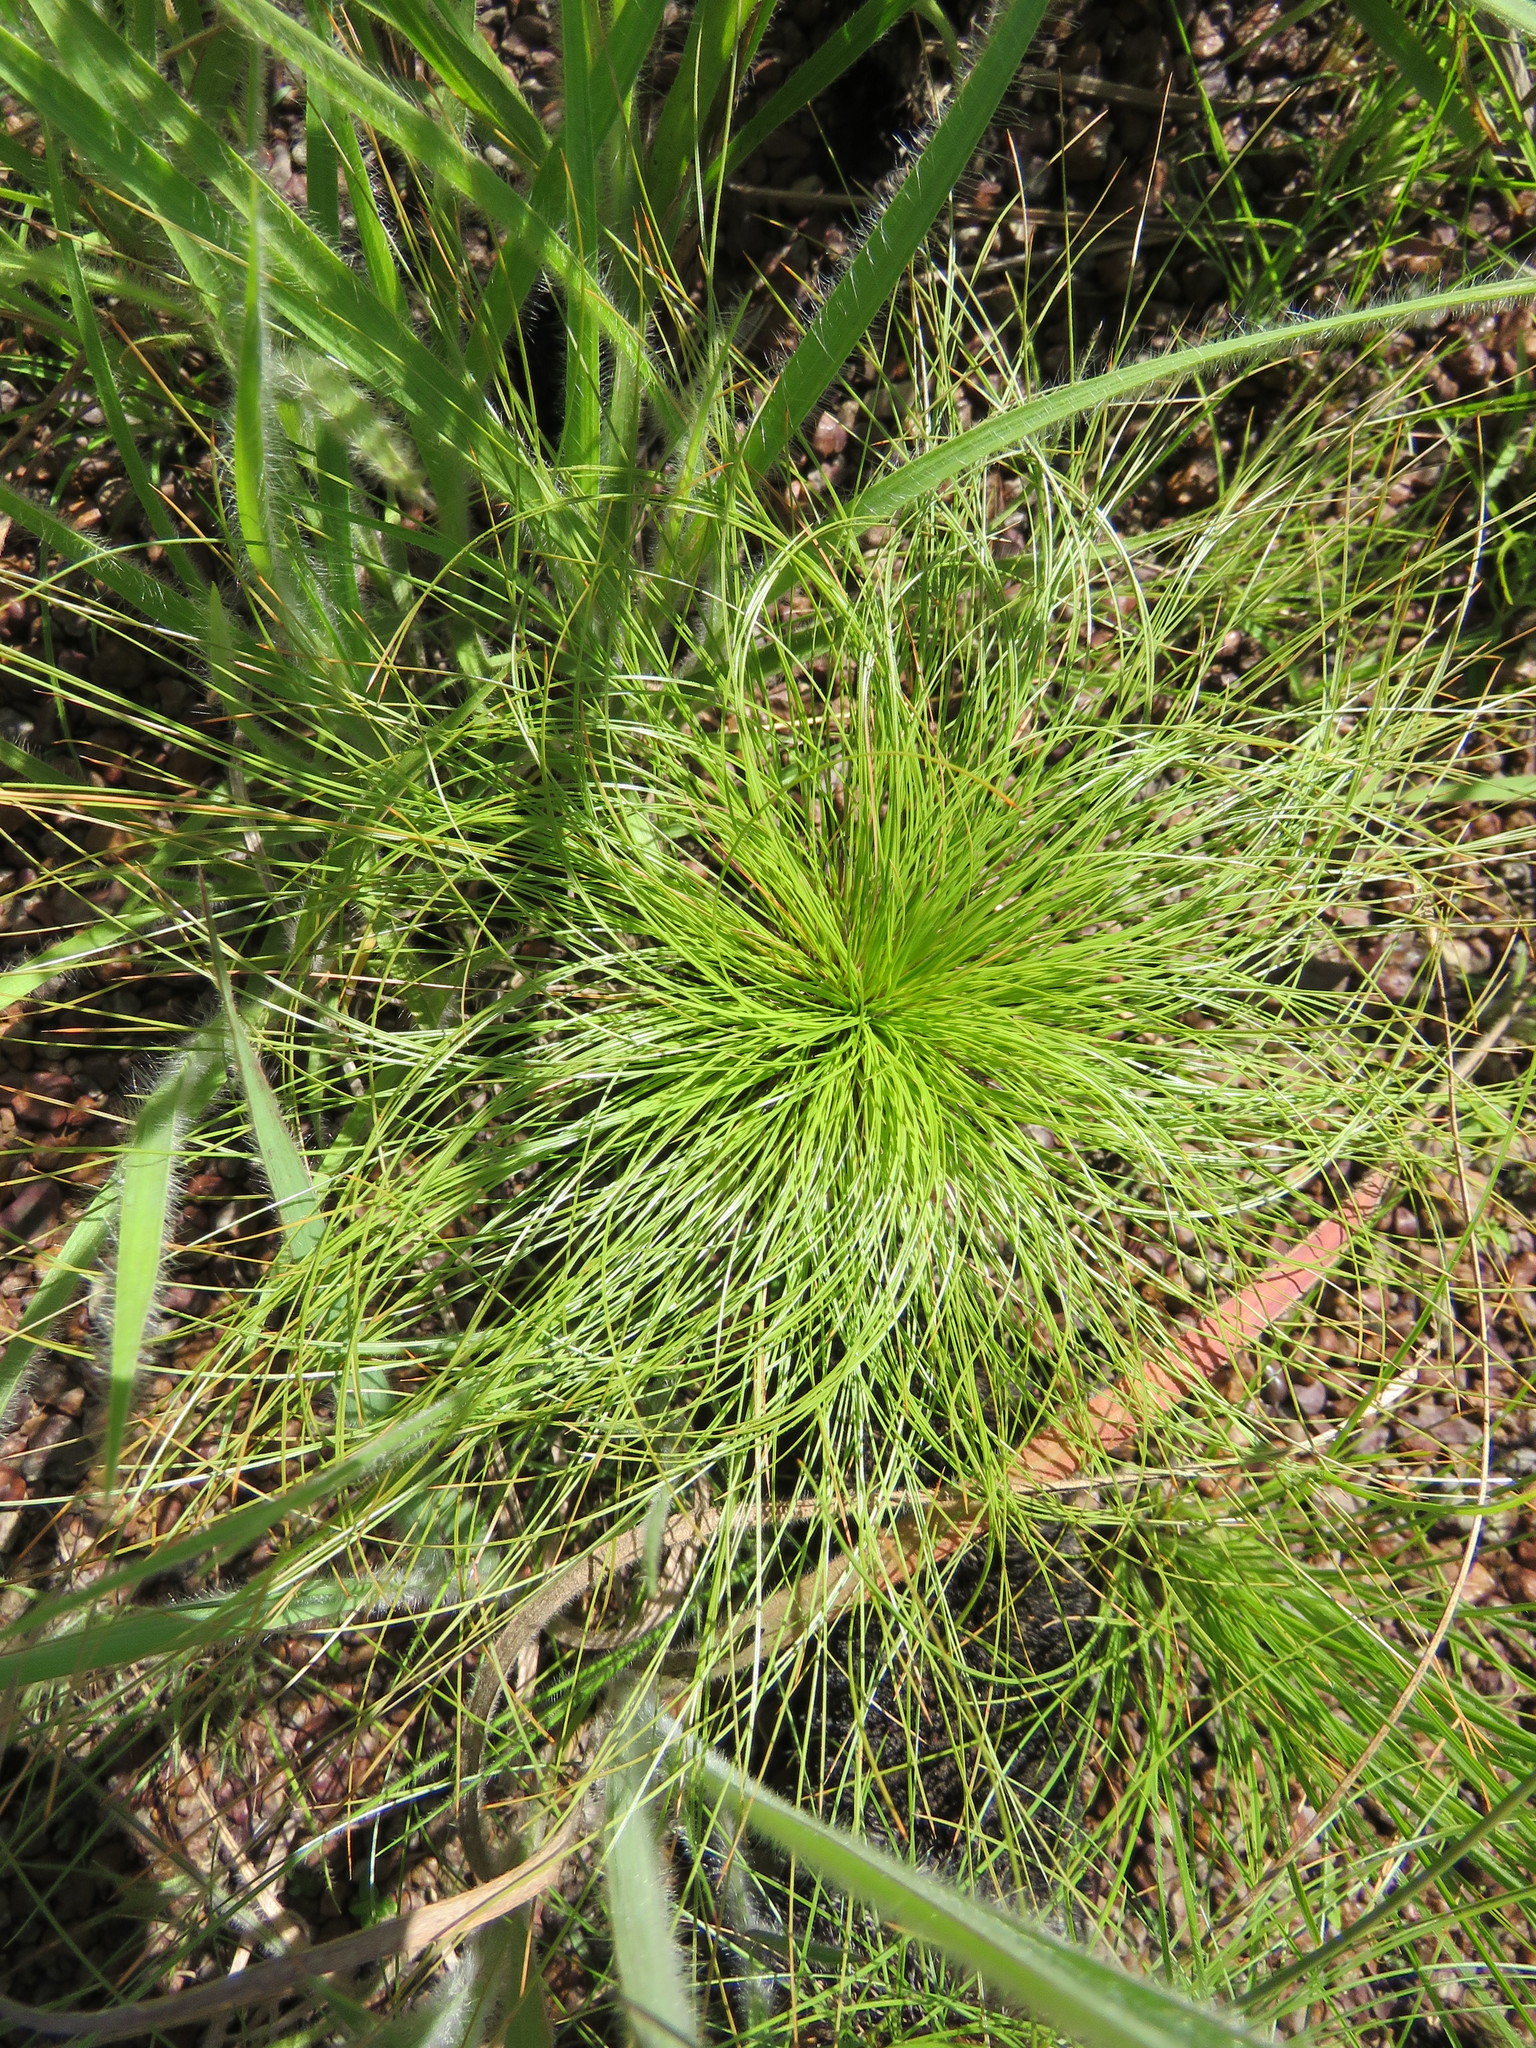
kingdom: Plantae
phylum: Tracheophyta
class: Liliopsida
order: Poales
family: Cyperaceae
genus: Bulbostylis
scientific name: Bulbostylis paradoxa
